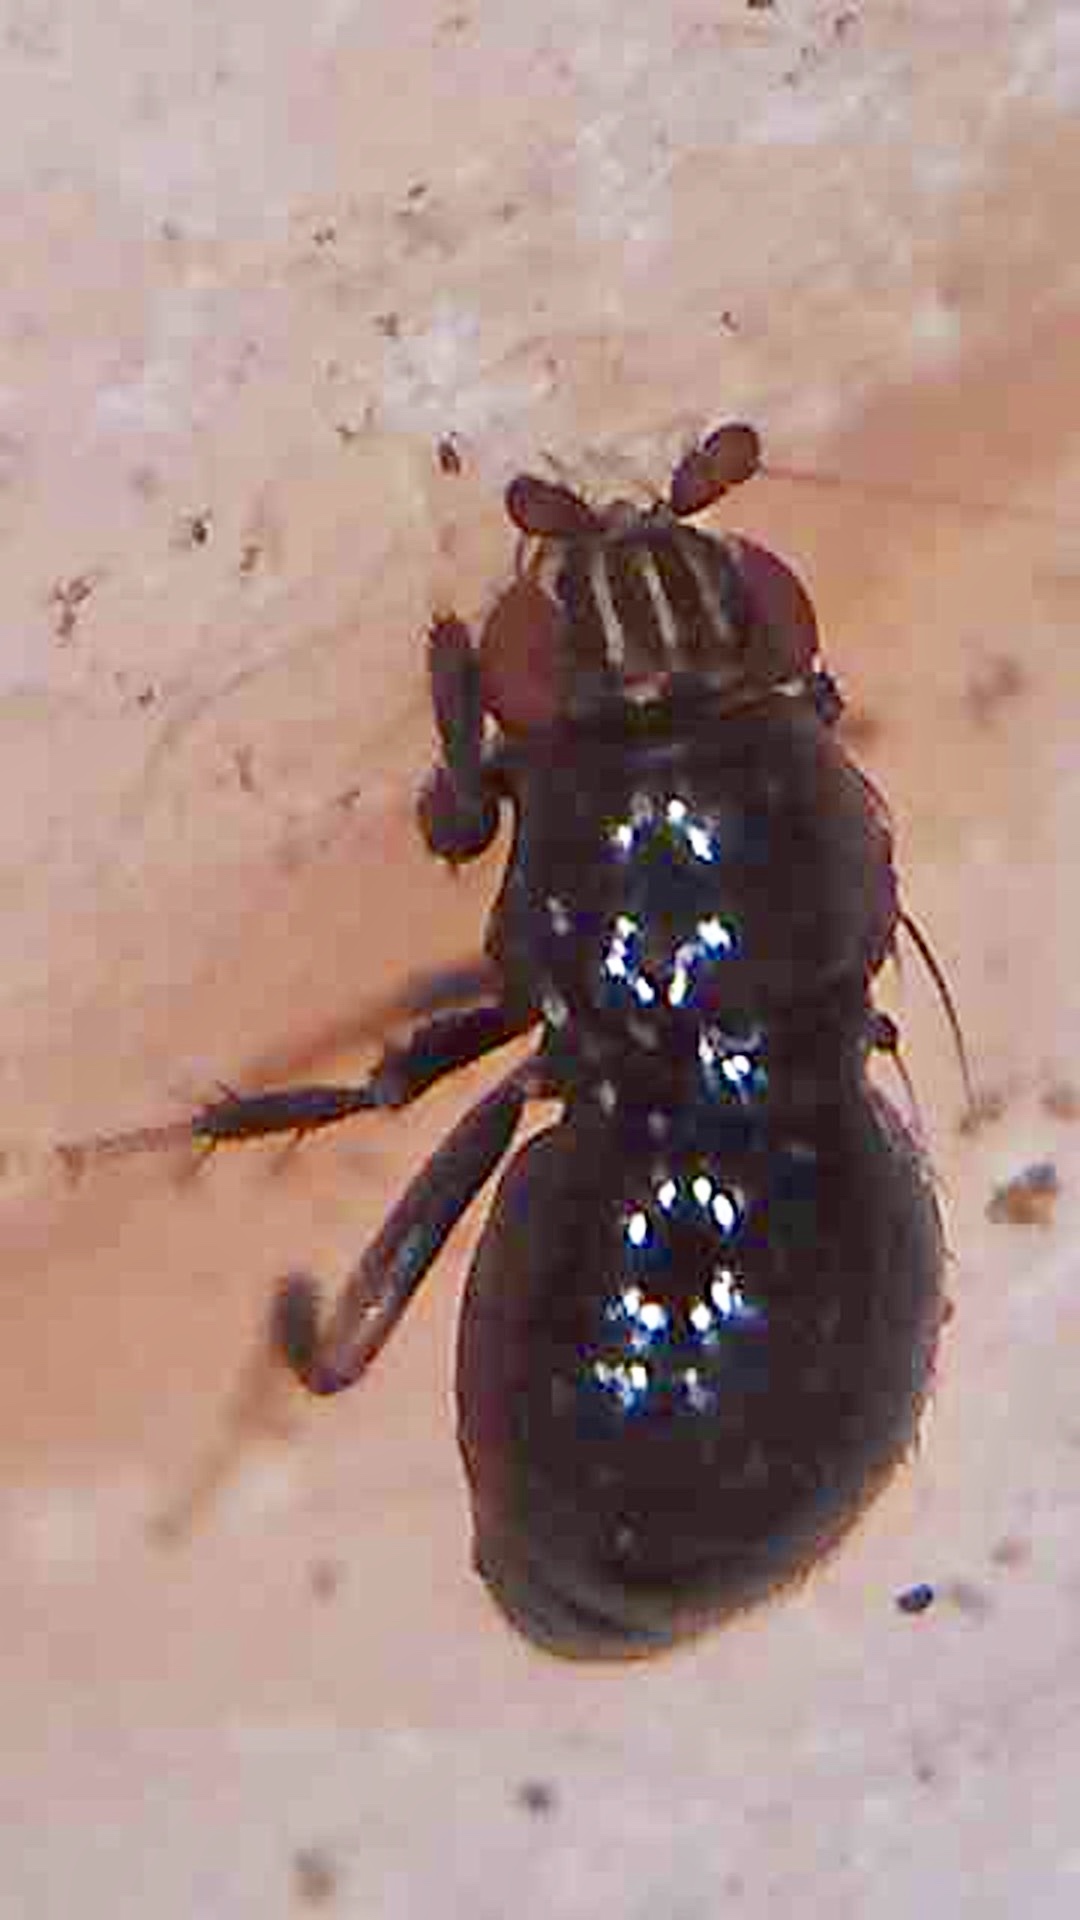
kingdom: Animalia
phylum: Arthropoda
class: Insecta
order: Diptera
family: Sphaeroceridae
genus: Howickia
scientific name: Howickia trilineata
